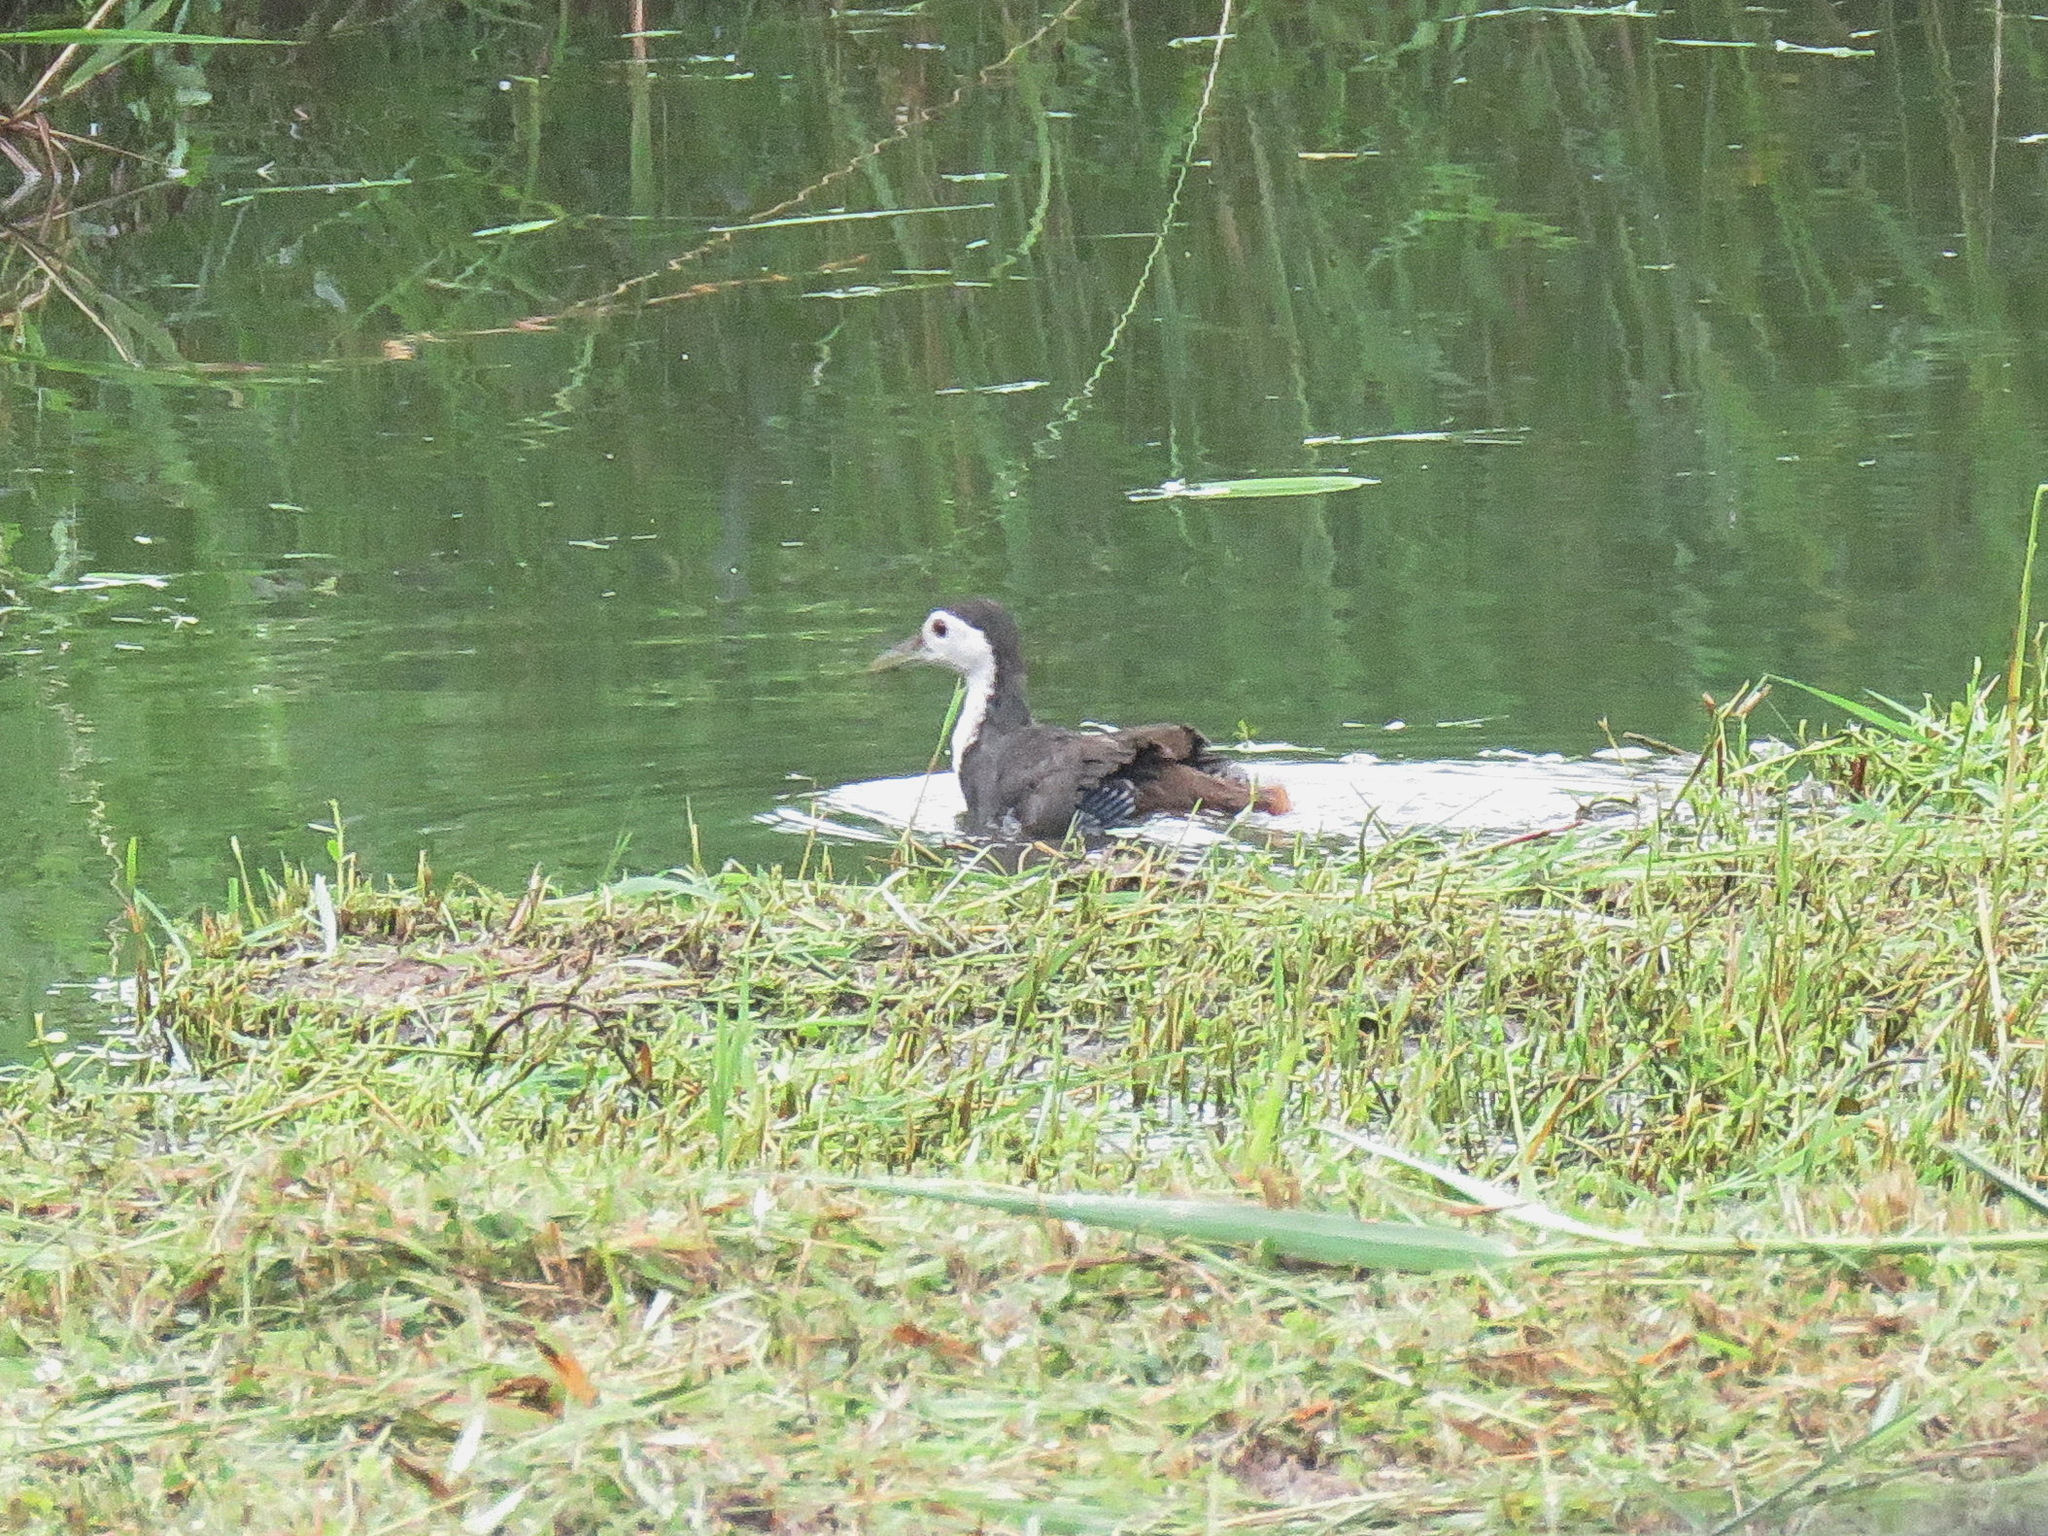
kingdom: Animalia
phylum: Chordata
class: Aves
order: Gruiformes
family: Rallidae
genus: Amaurornis
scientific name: Amaurornis phoenicurus
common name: White-breasted waterhen
